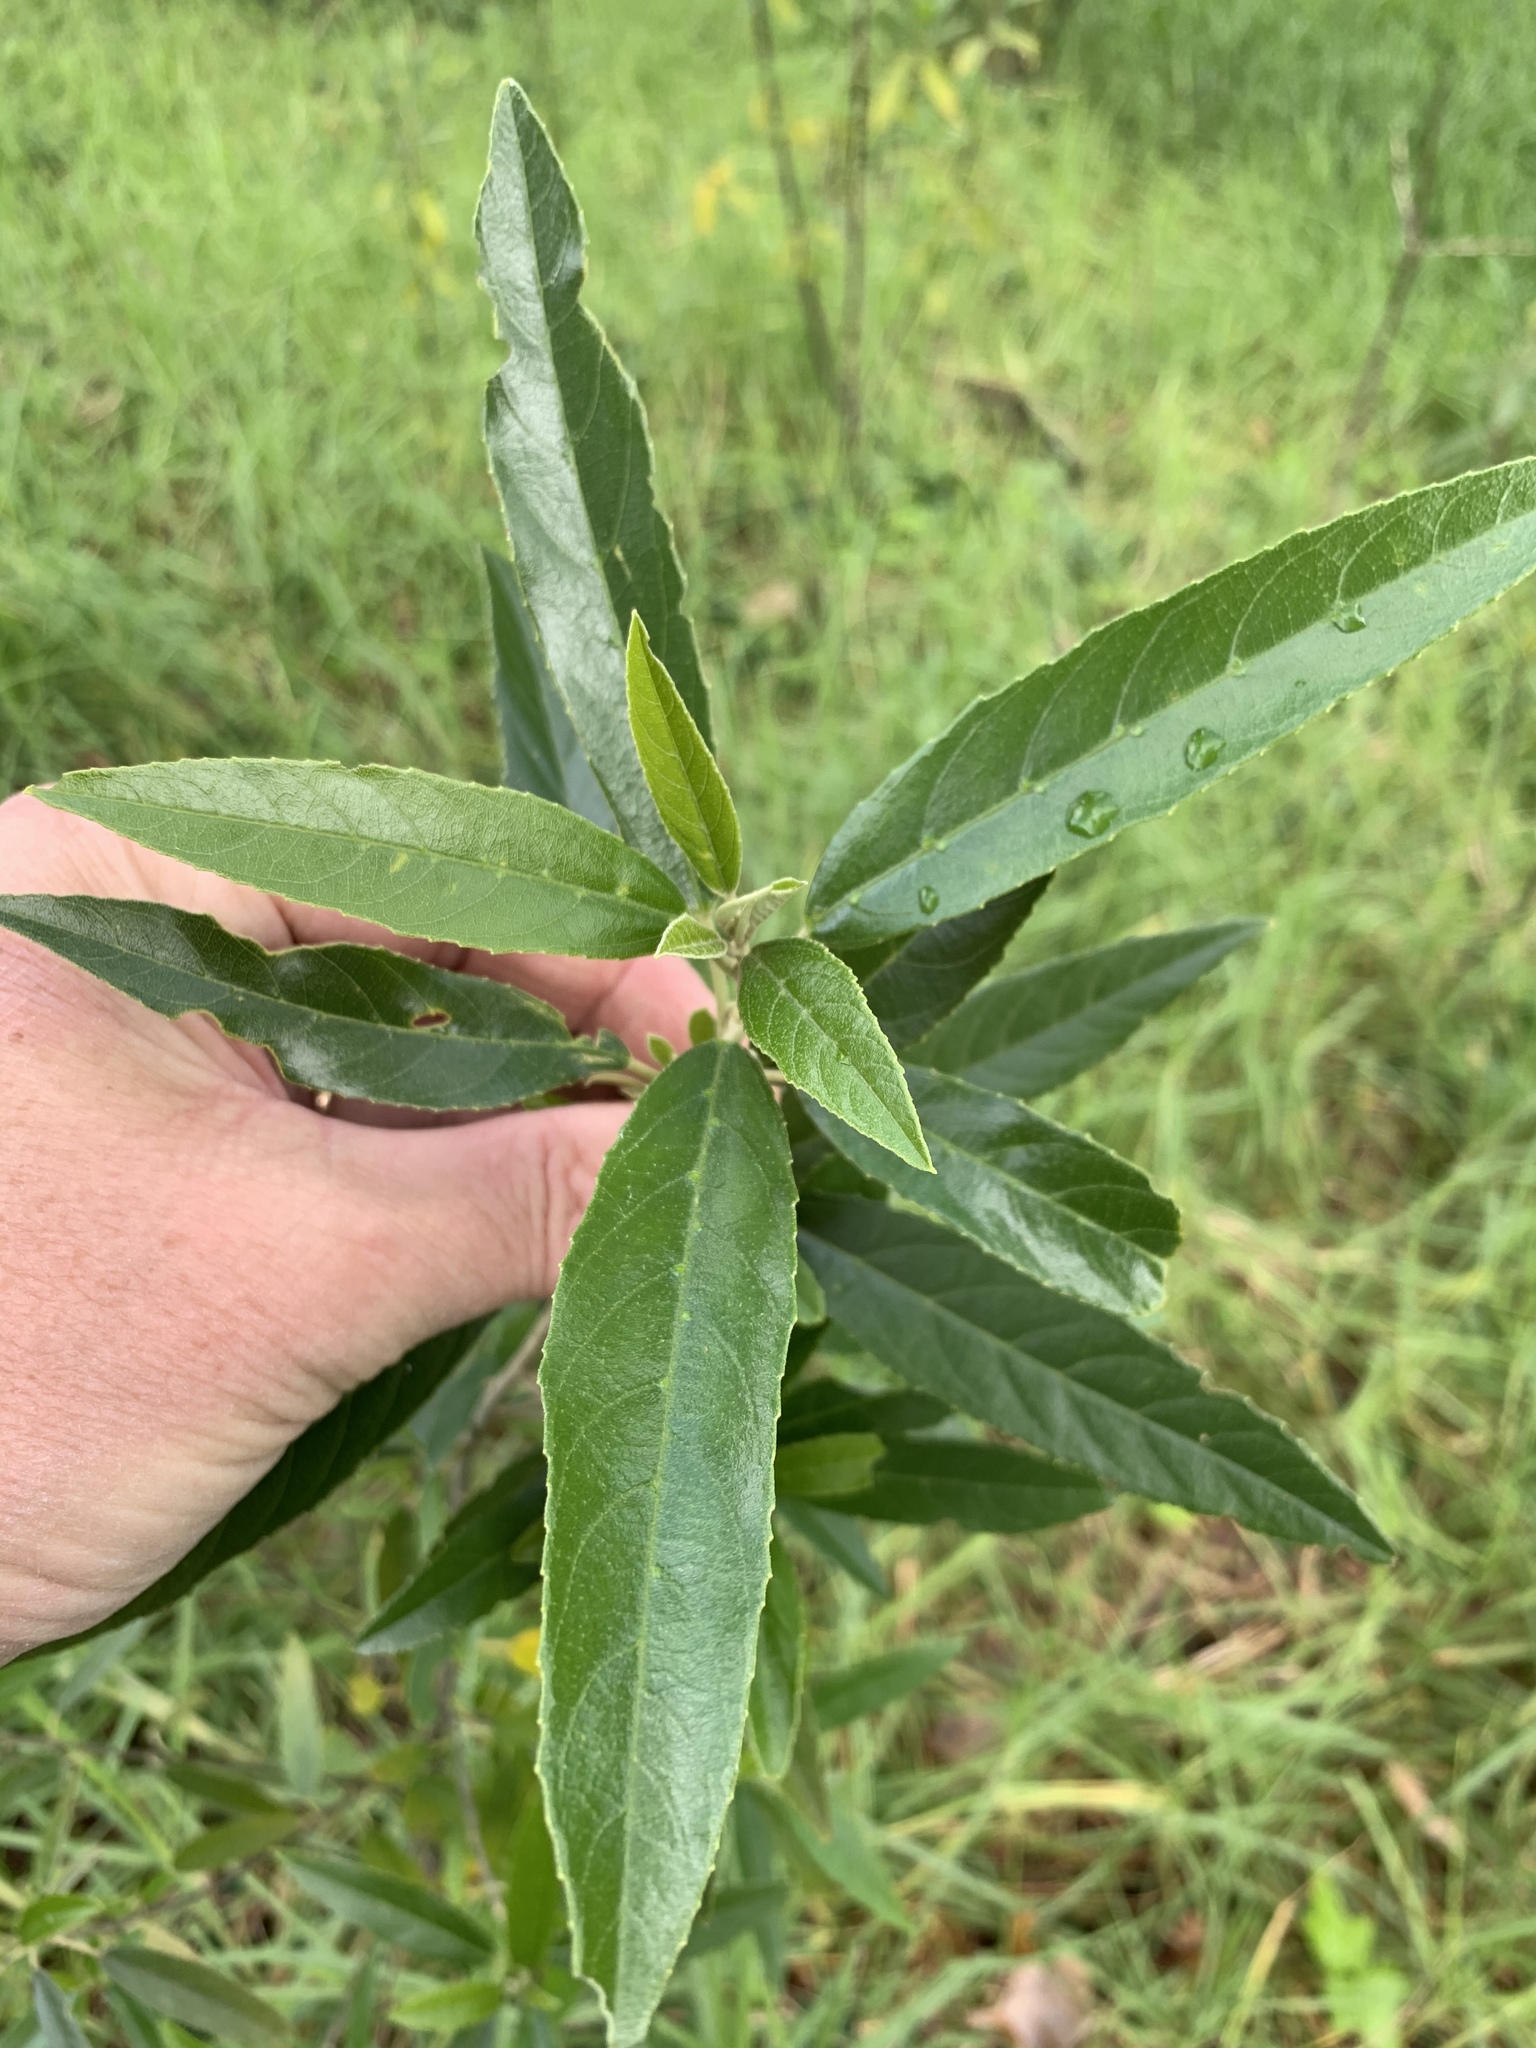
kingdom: Plantae
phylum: Tracheophyta
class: Magnoliopsida
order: Malpighiales
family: Achariaceae
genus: Kiggelaria
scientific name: Kiggelaria africana
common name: Wild peach
